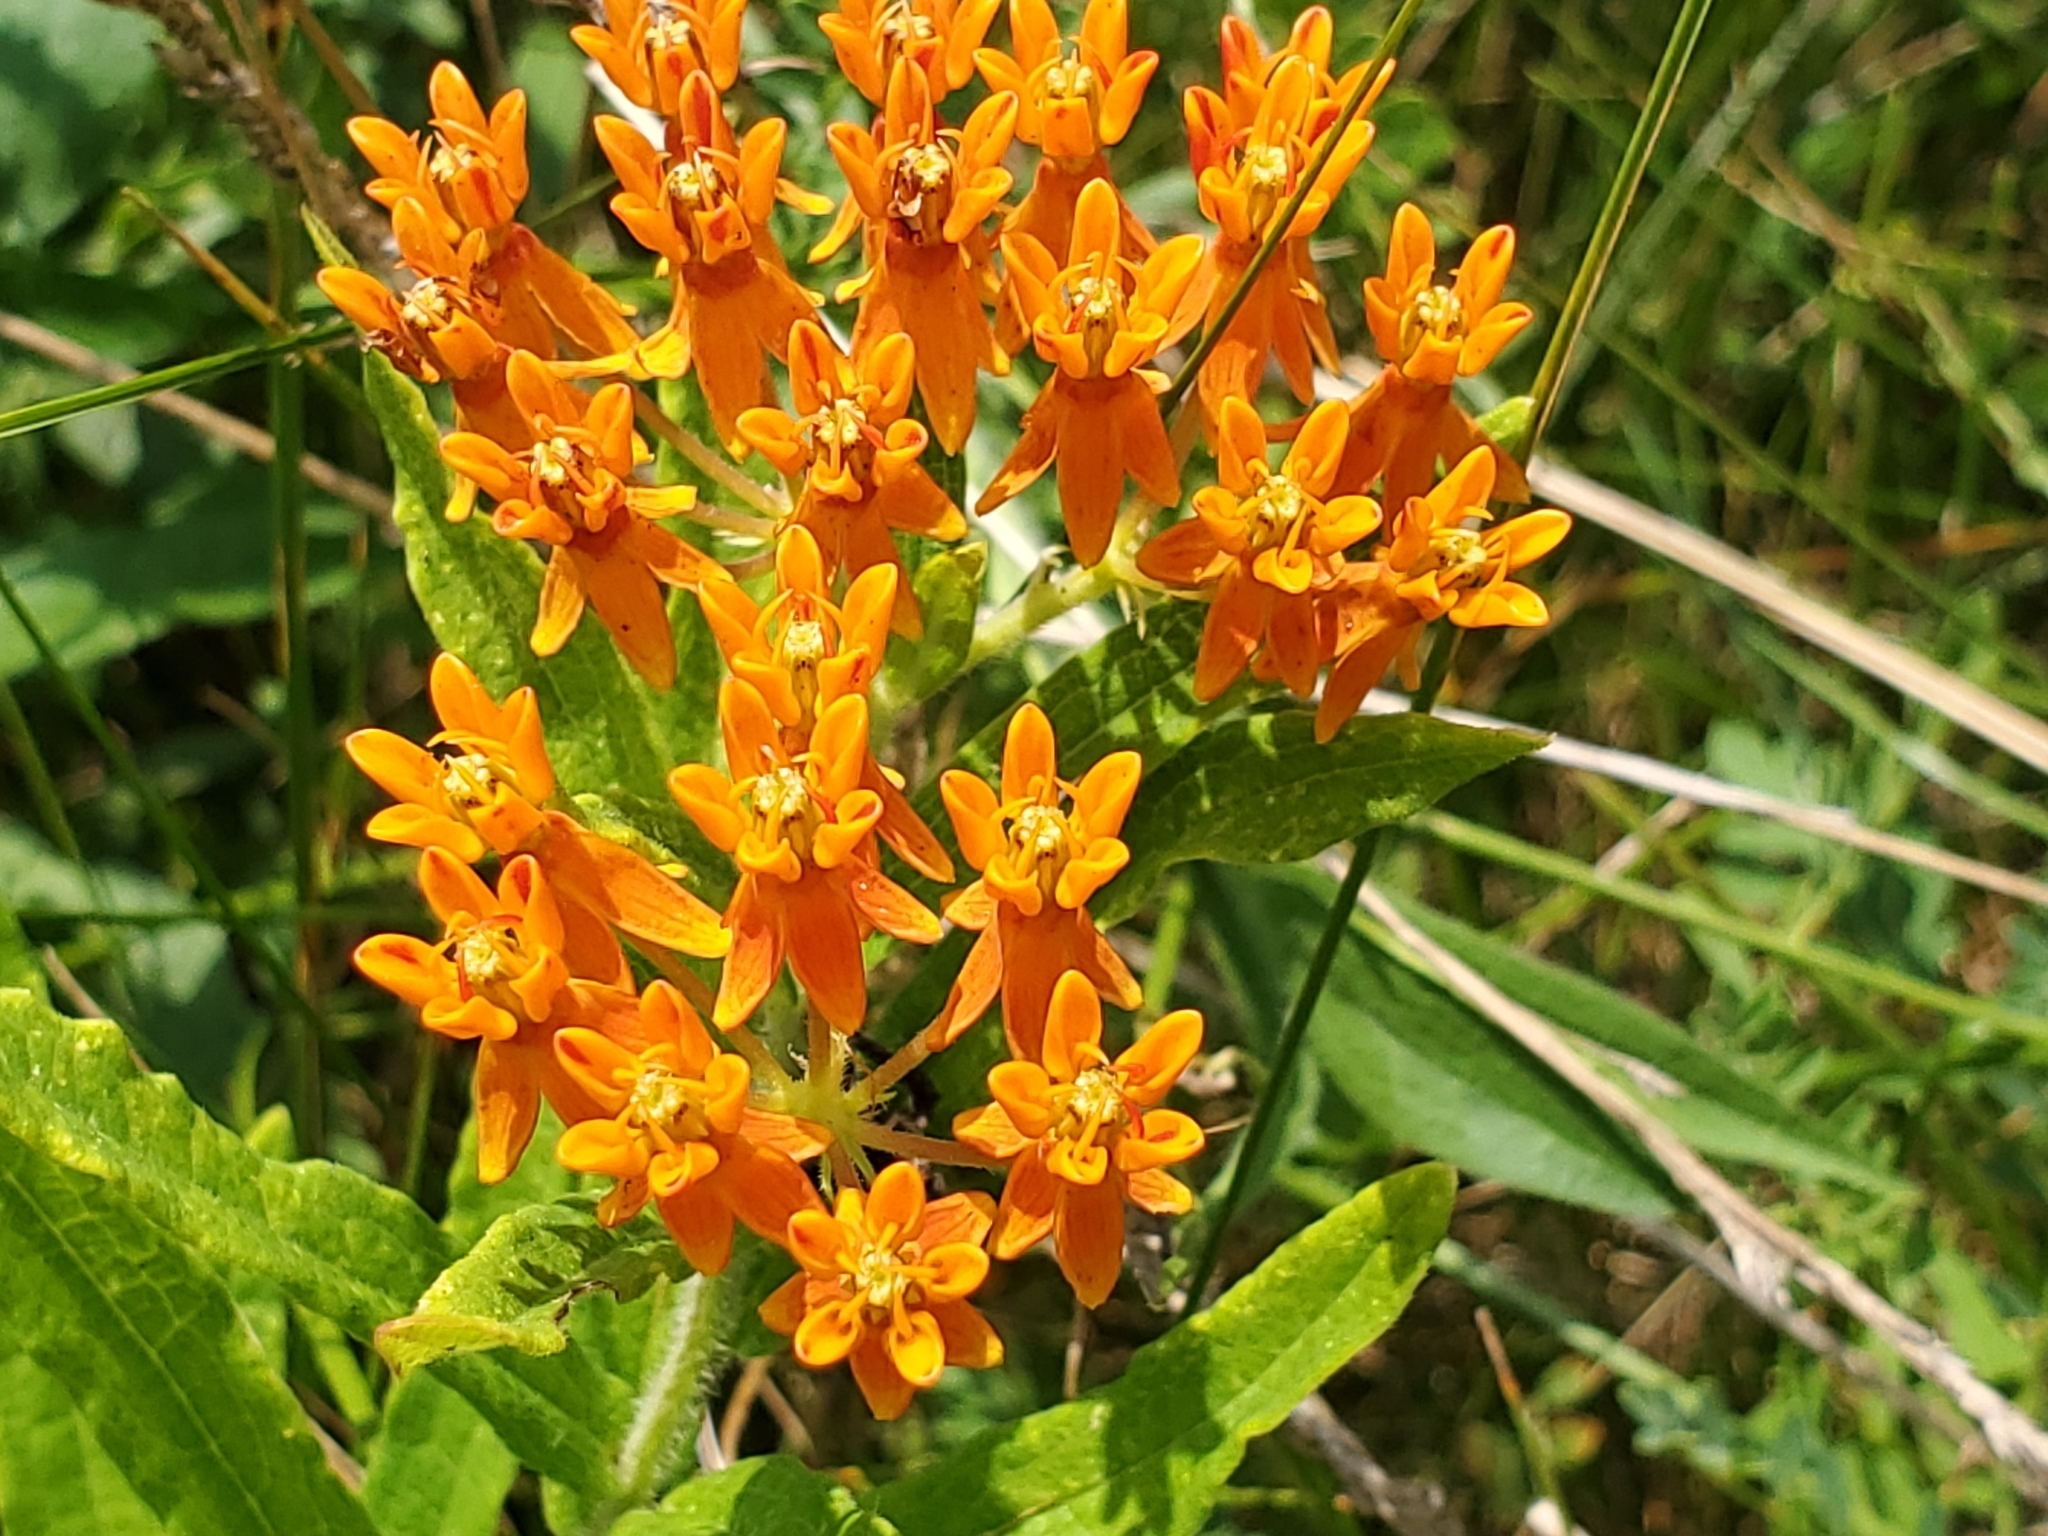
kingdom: Plantae
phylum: Tracheophyta
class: Magnoliopsida
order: Gentianales
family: Apocynaceae
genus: Asclepias
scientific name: Asclepias tuberosa
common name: Butterfly milkweed
